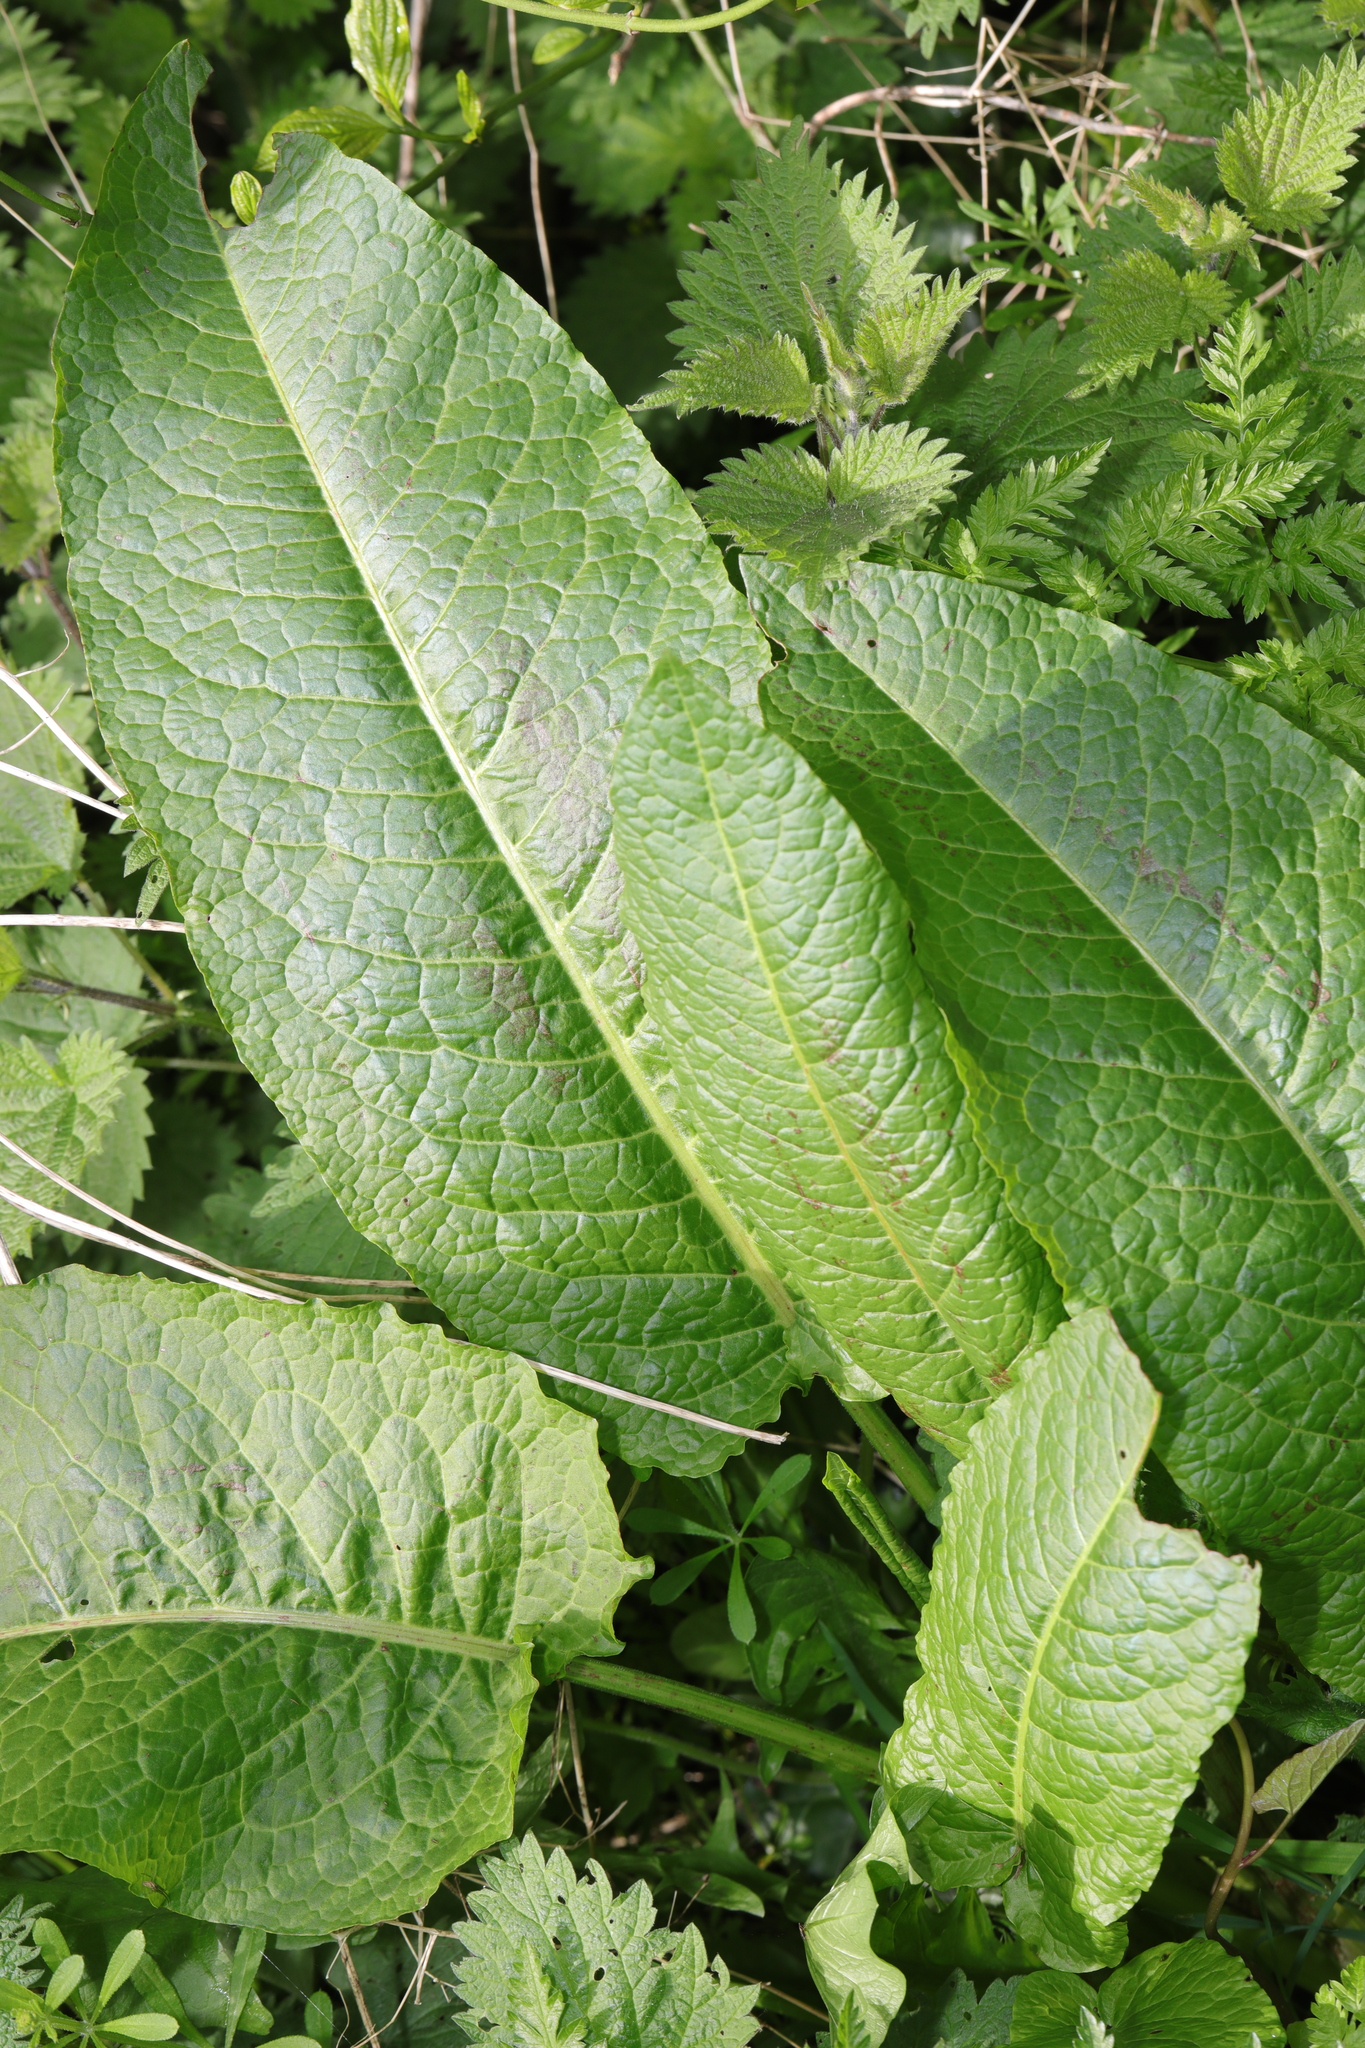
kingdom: Plantae
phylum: Tracheophyta
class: Magnoliopsida
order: Caryophyllales
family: Polygonaceae
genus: Rumex
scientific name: Rumex obtusifolius
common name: Bitter dock
